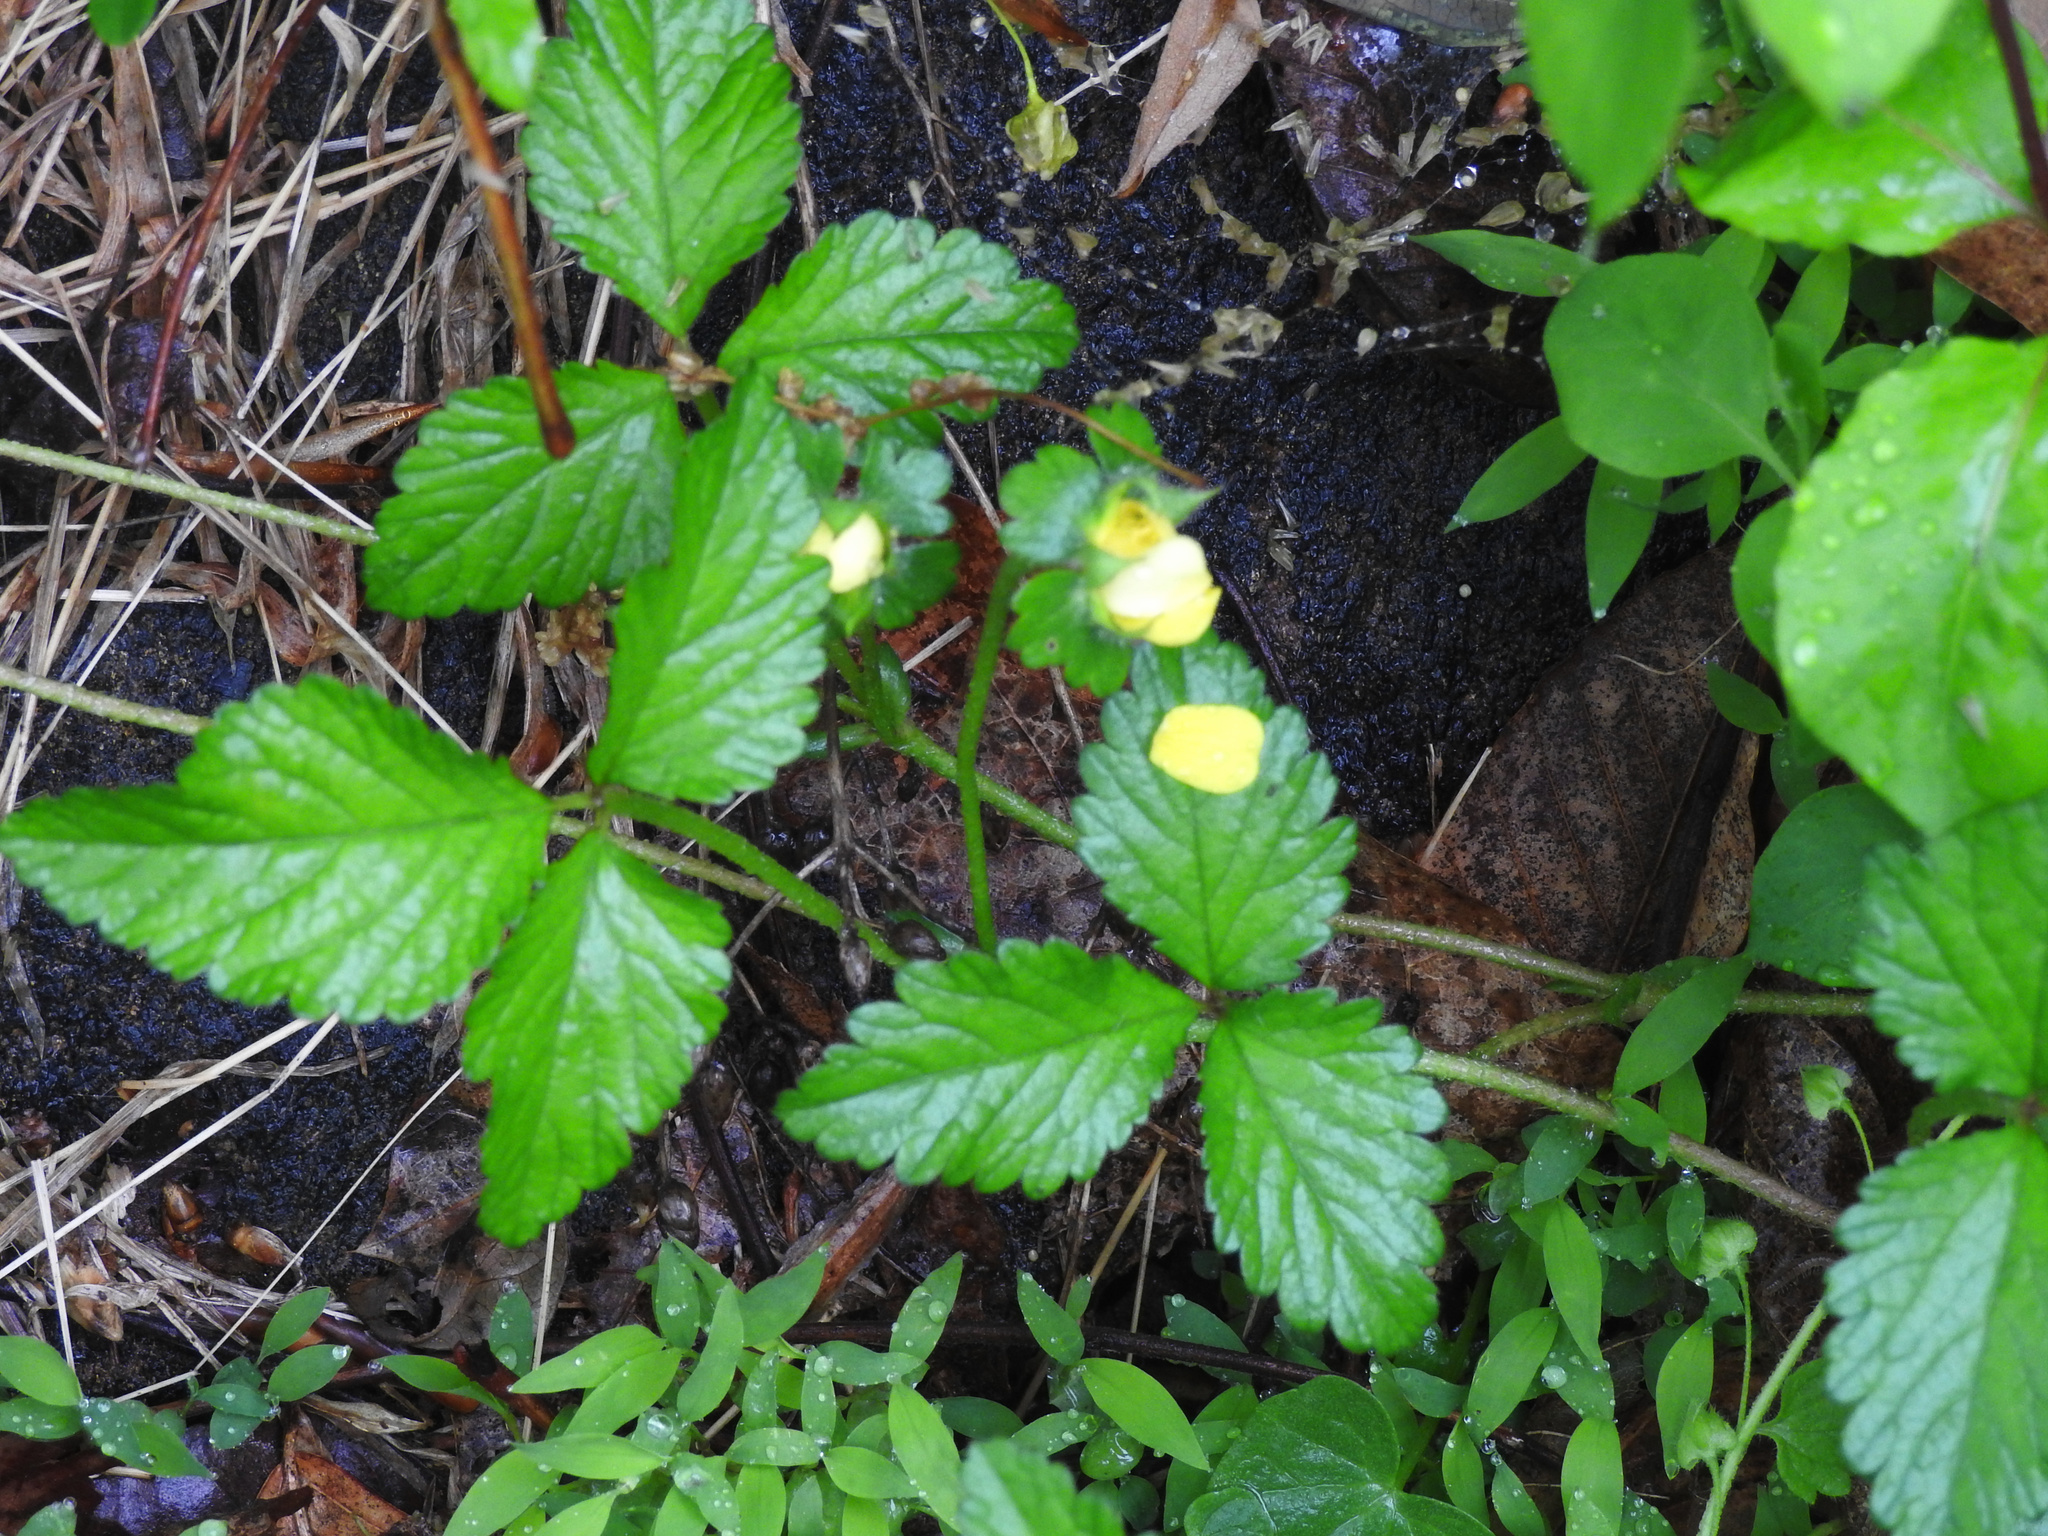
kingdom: Plantae
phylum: Tracheophyta
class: Magnoliopsida
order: Rosales
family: Rosaceae
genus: Potentilla
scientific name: Potentilla indica
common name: Yellow-flowered strawberry
